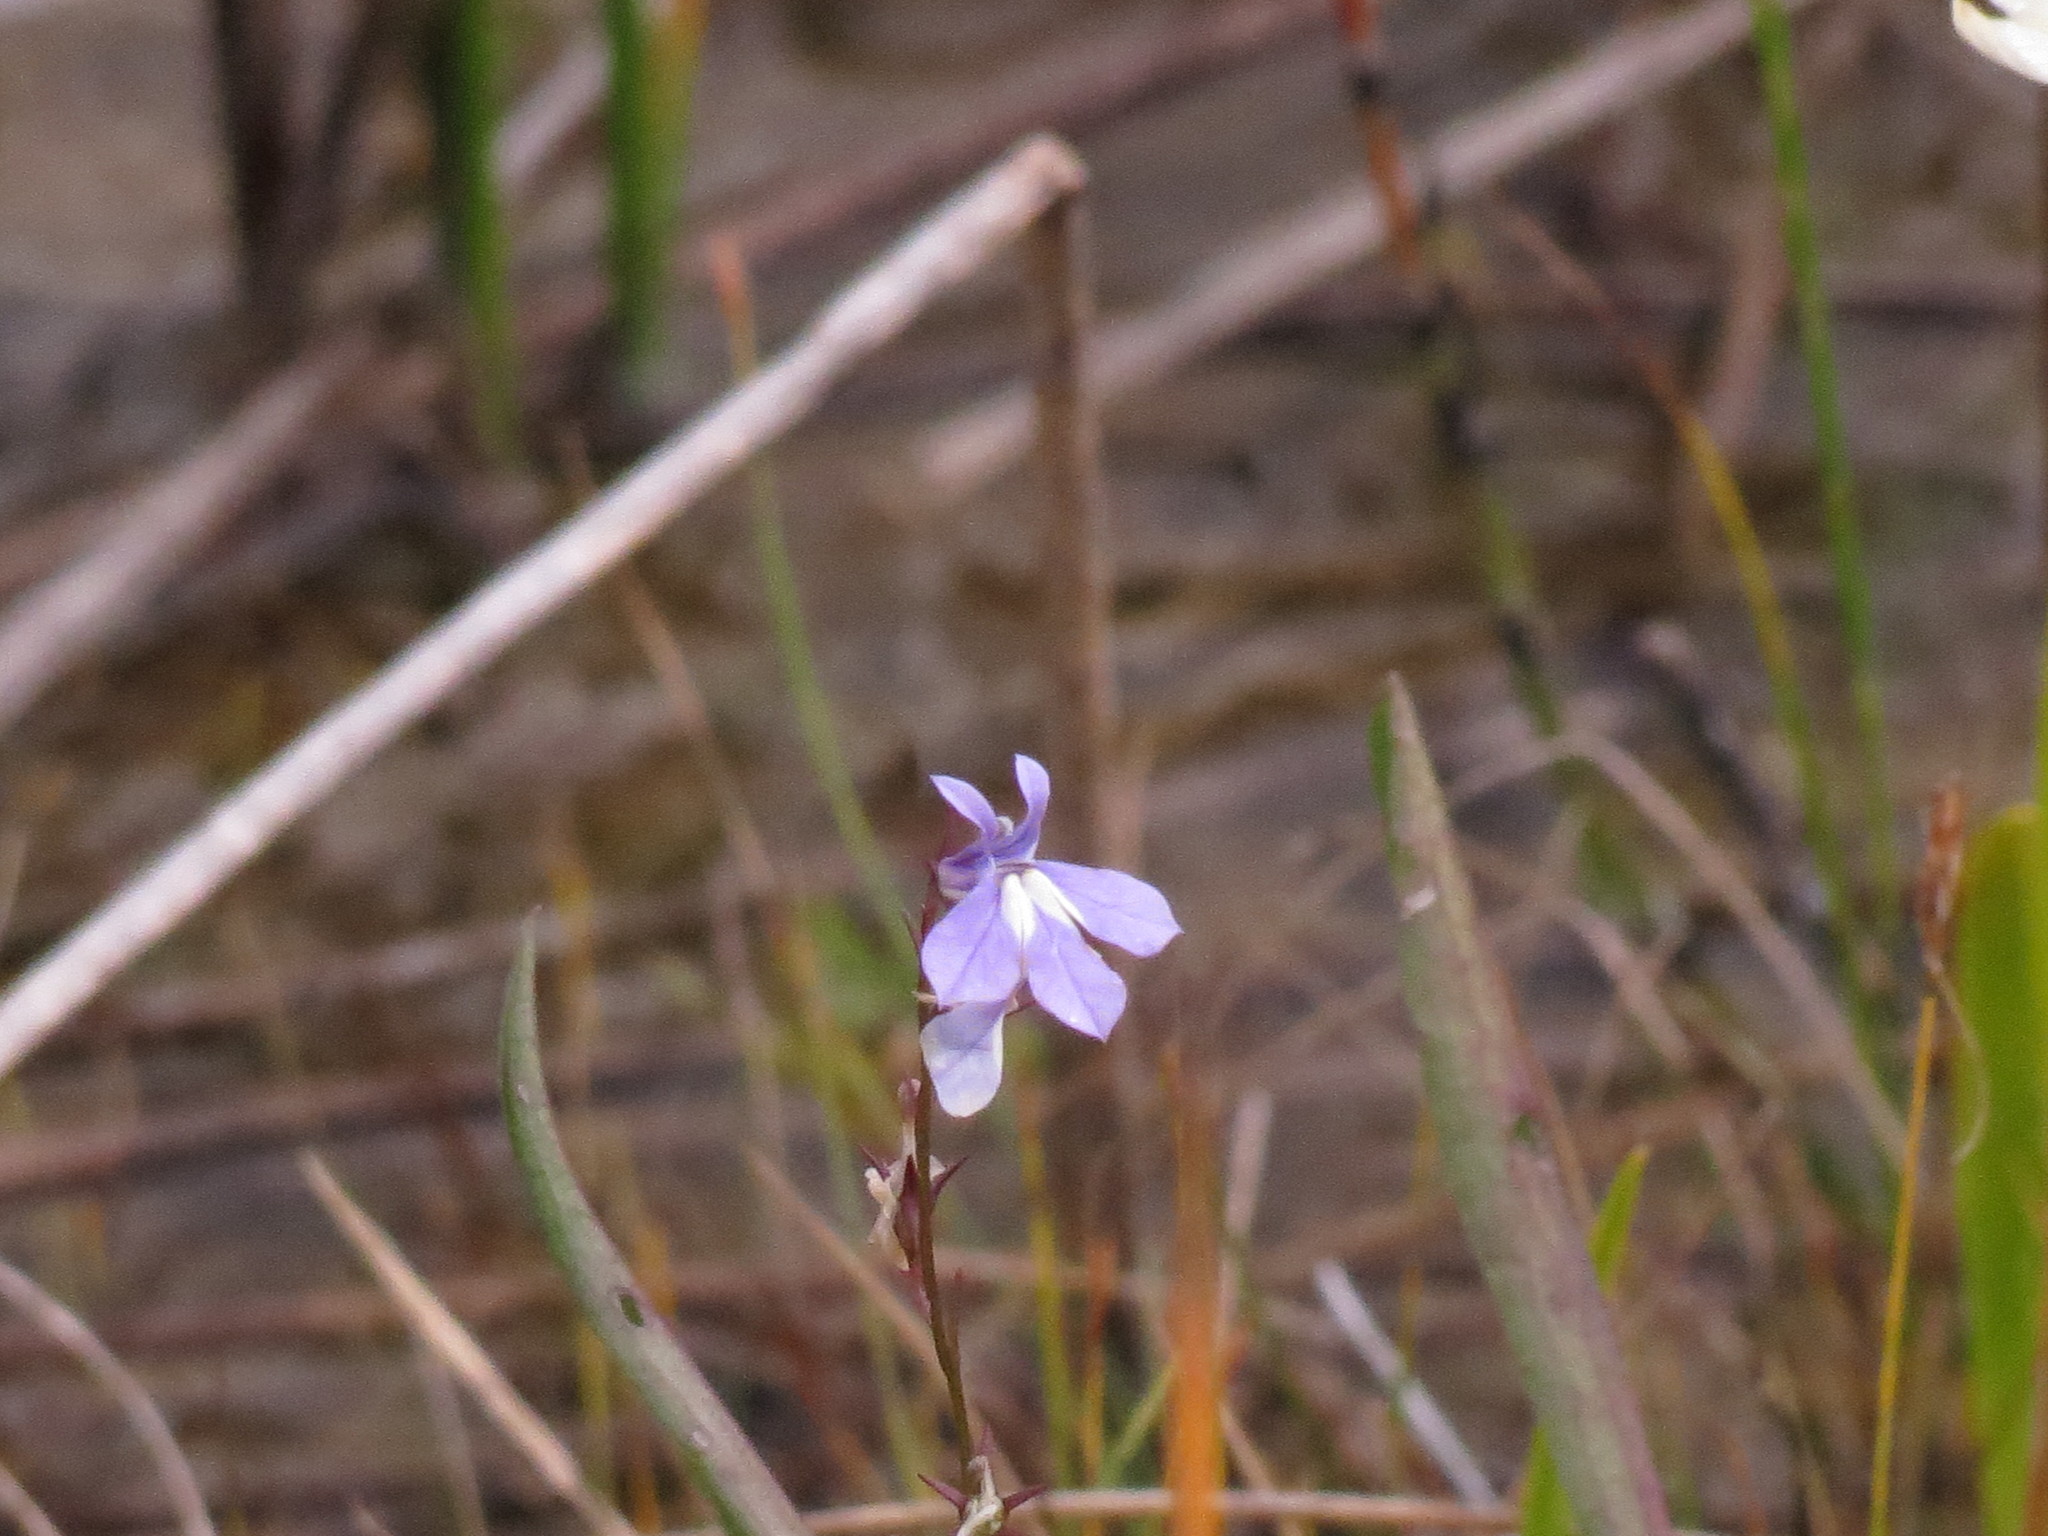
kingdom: Plantae
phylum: Tracheophyta
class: Magnoliopsida
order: Asterales
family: Campanulaceae
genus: Lobelia
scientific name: Lobelia kalmii
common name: Kalm's lobelia
